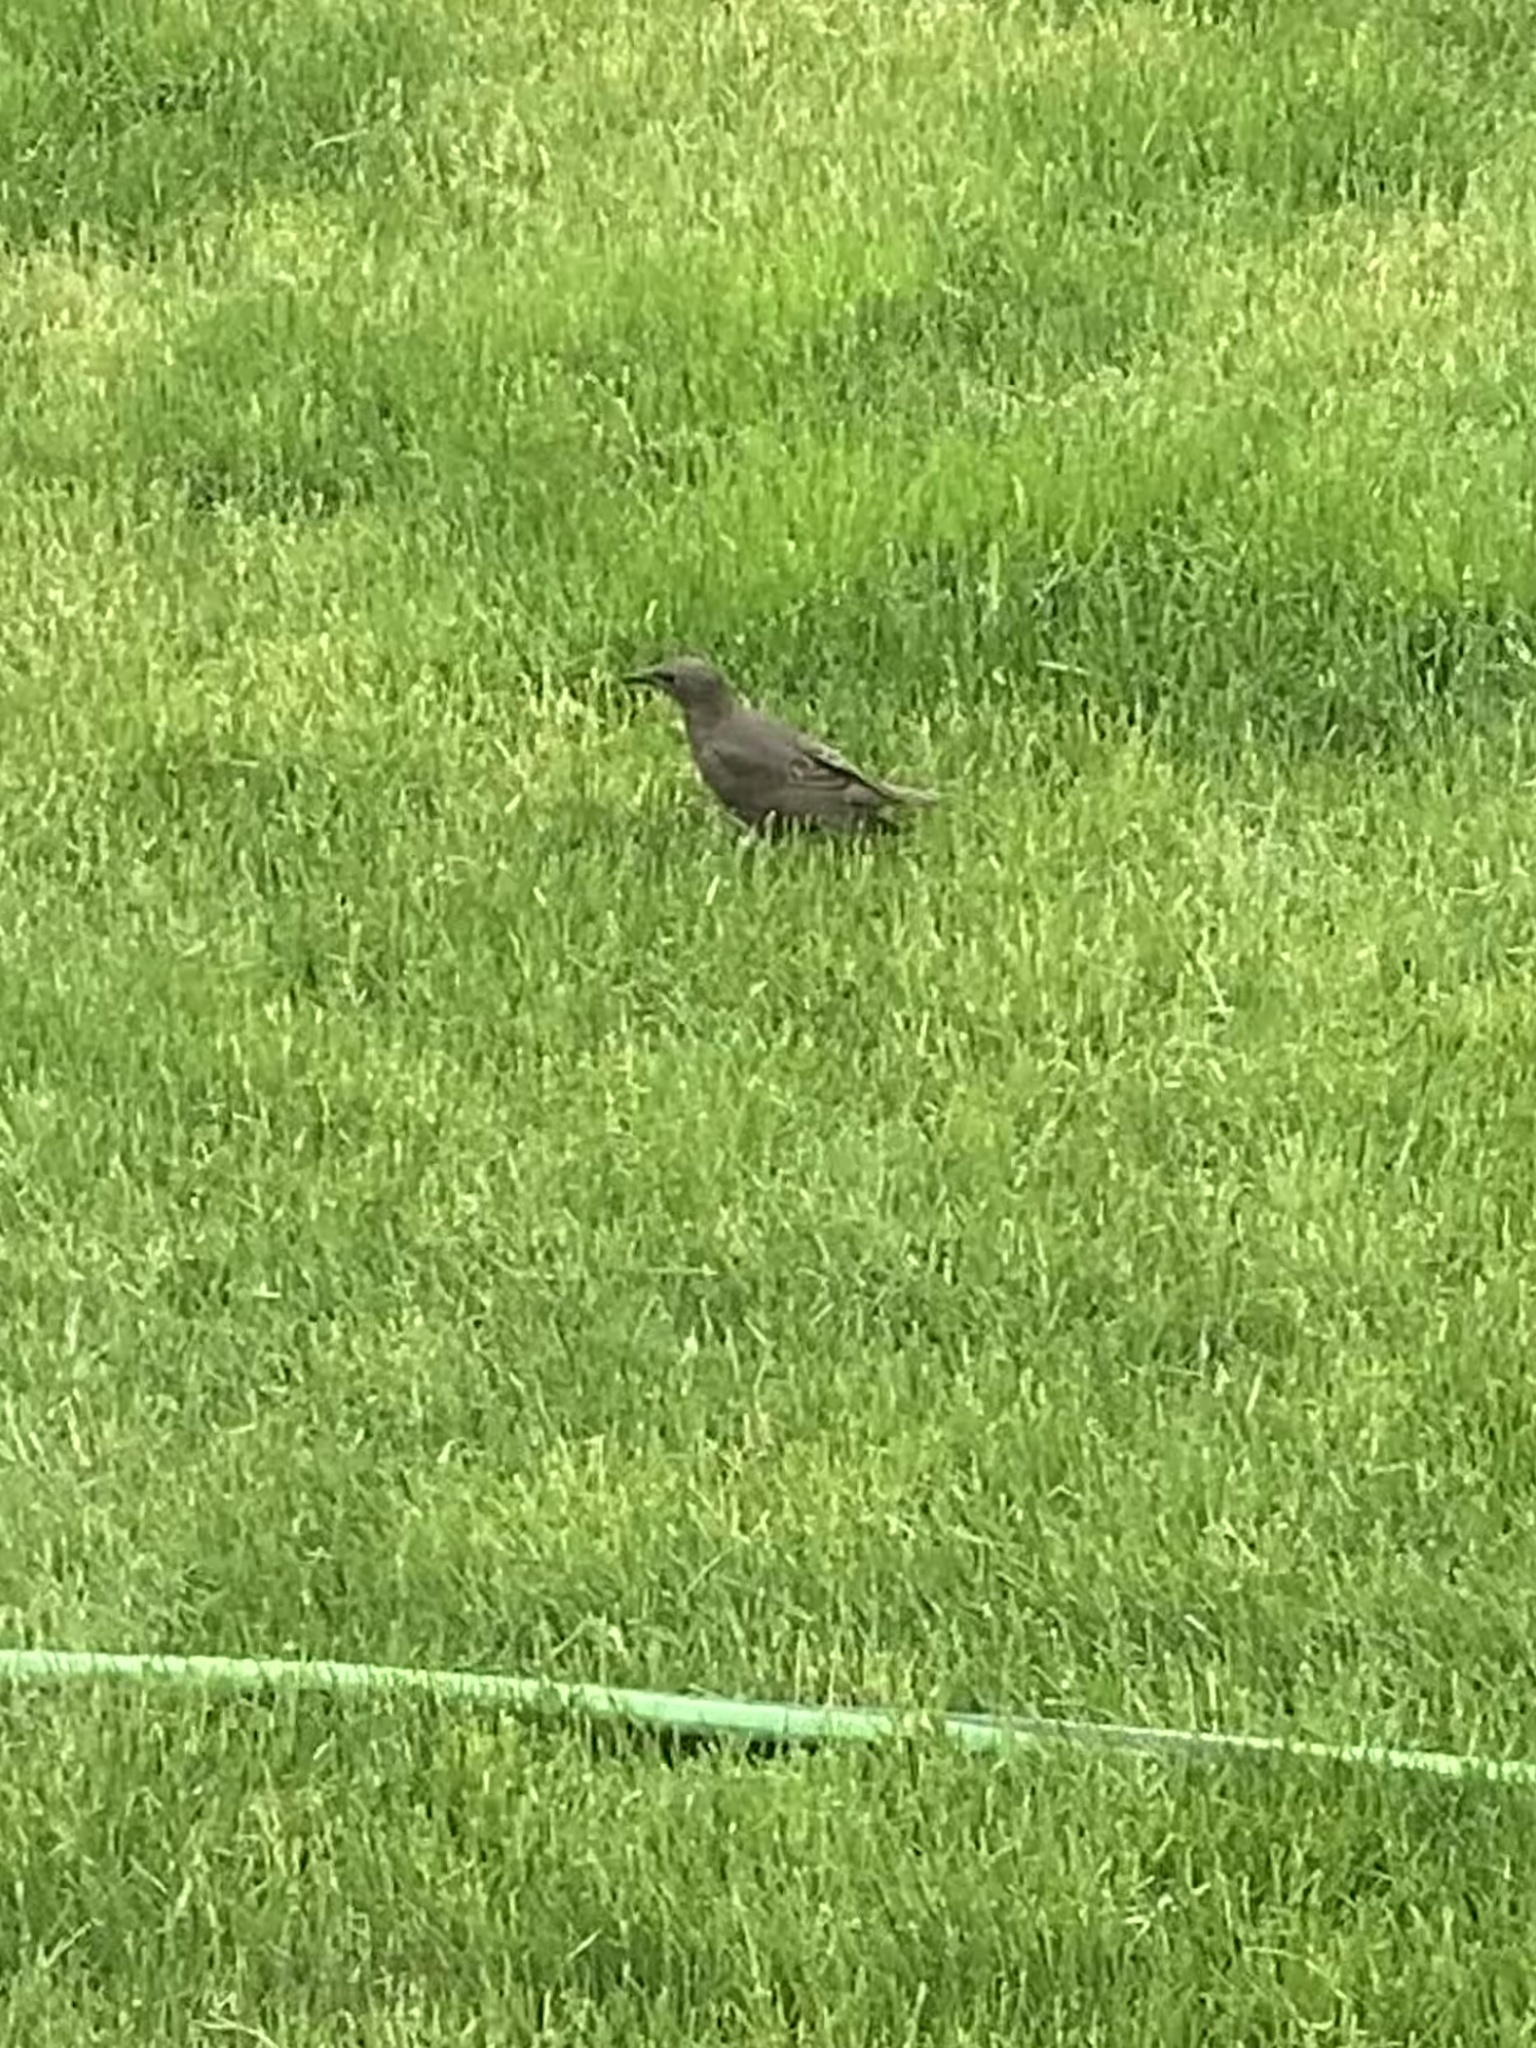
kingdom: Animalia
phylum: Chordata
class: Aves
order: Passeriformes
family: Sturnidae
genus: Sturnus
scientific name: Sturnus vulgaris
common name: Common starling
